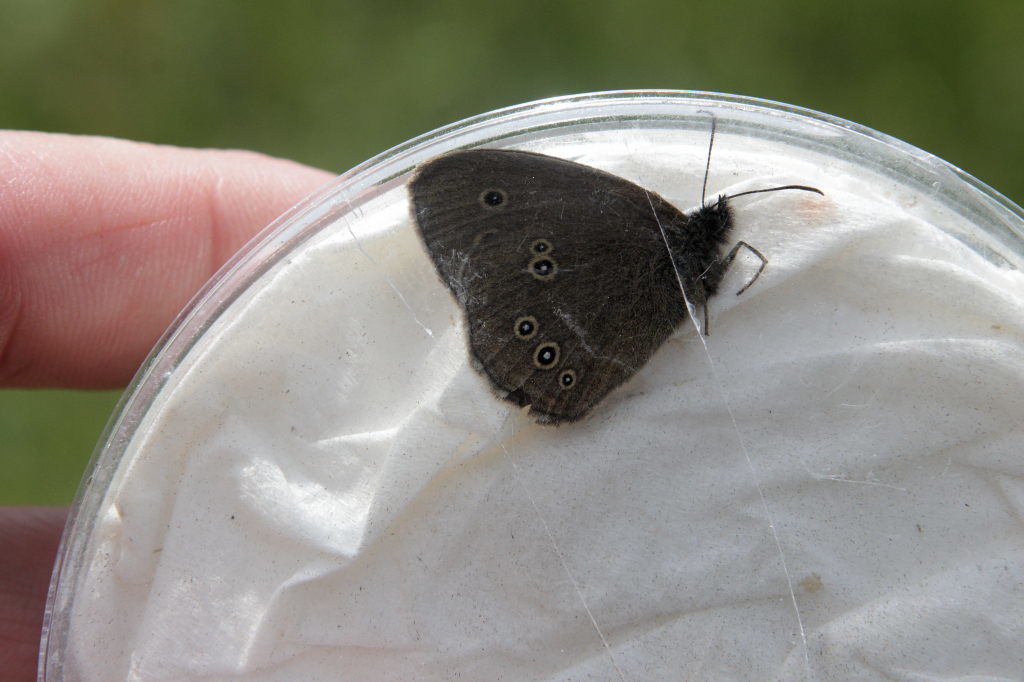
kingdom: Animalia
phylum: Arthropoda
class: Insecta
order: Lepidoptera
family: Nymphalidae
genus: Aphantopus
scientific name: Aphantopus hyperantus
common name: Ringlet
